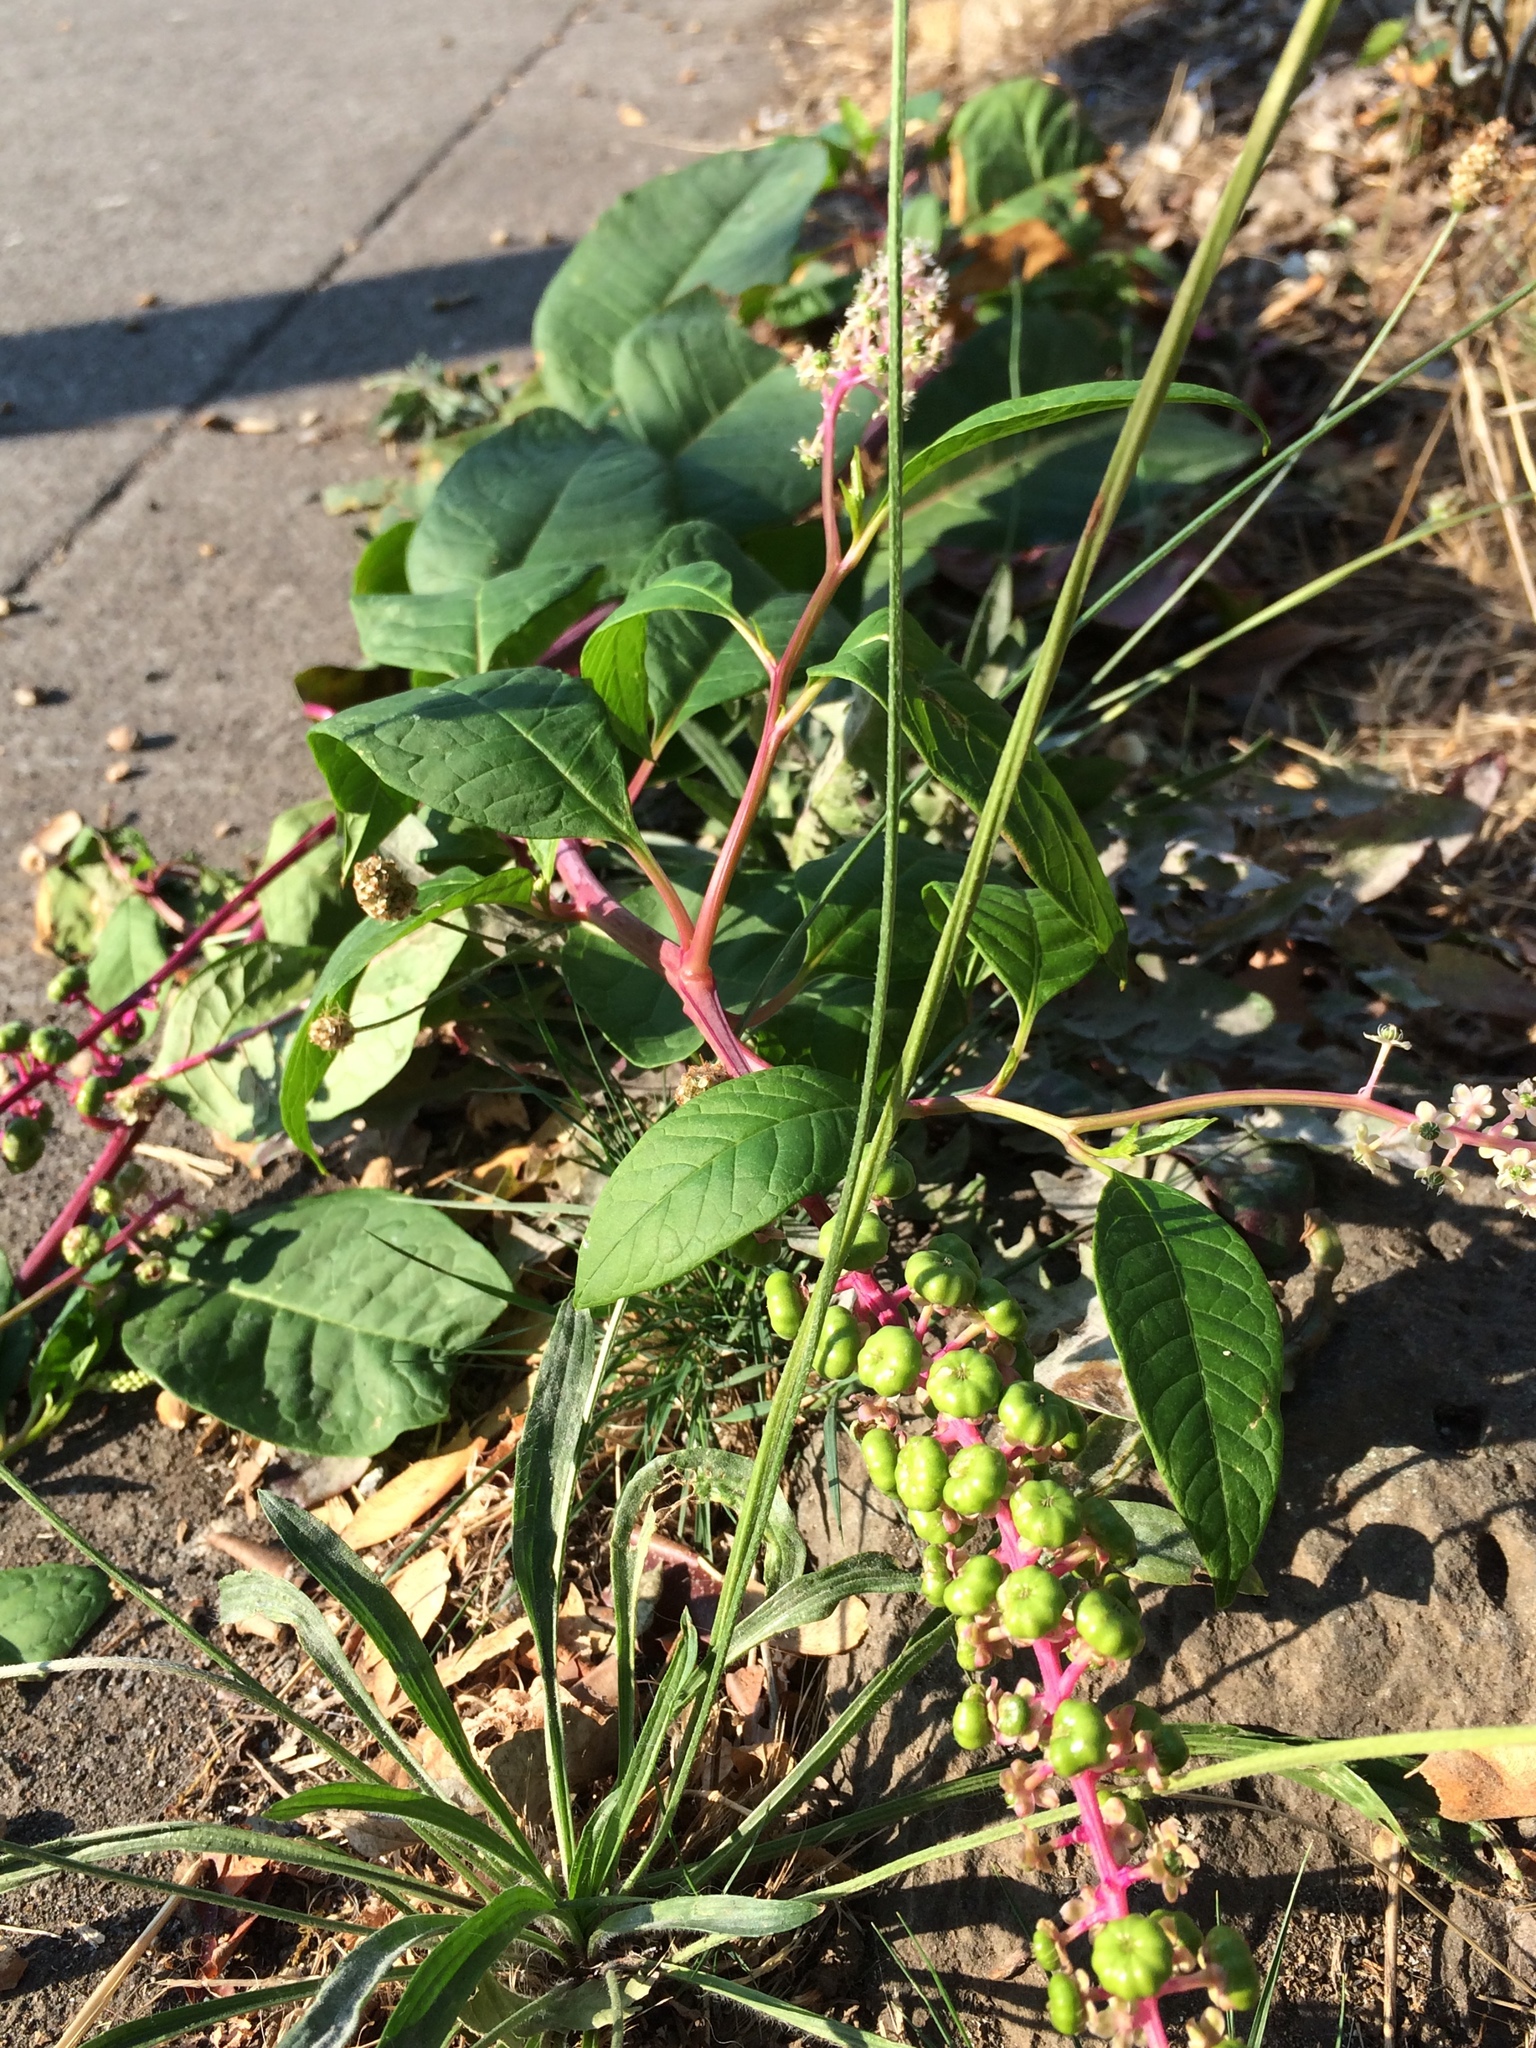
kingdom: Plantae
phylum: Tracheophyta
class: Magnoliopsida
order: Caryophyllales
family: Phytolaccaceae
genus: Phytolacca
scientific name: Phytolacca americana
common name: American pokeweed
